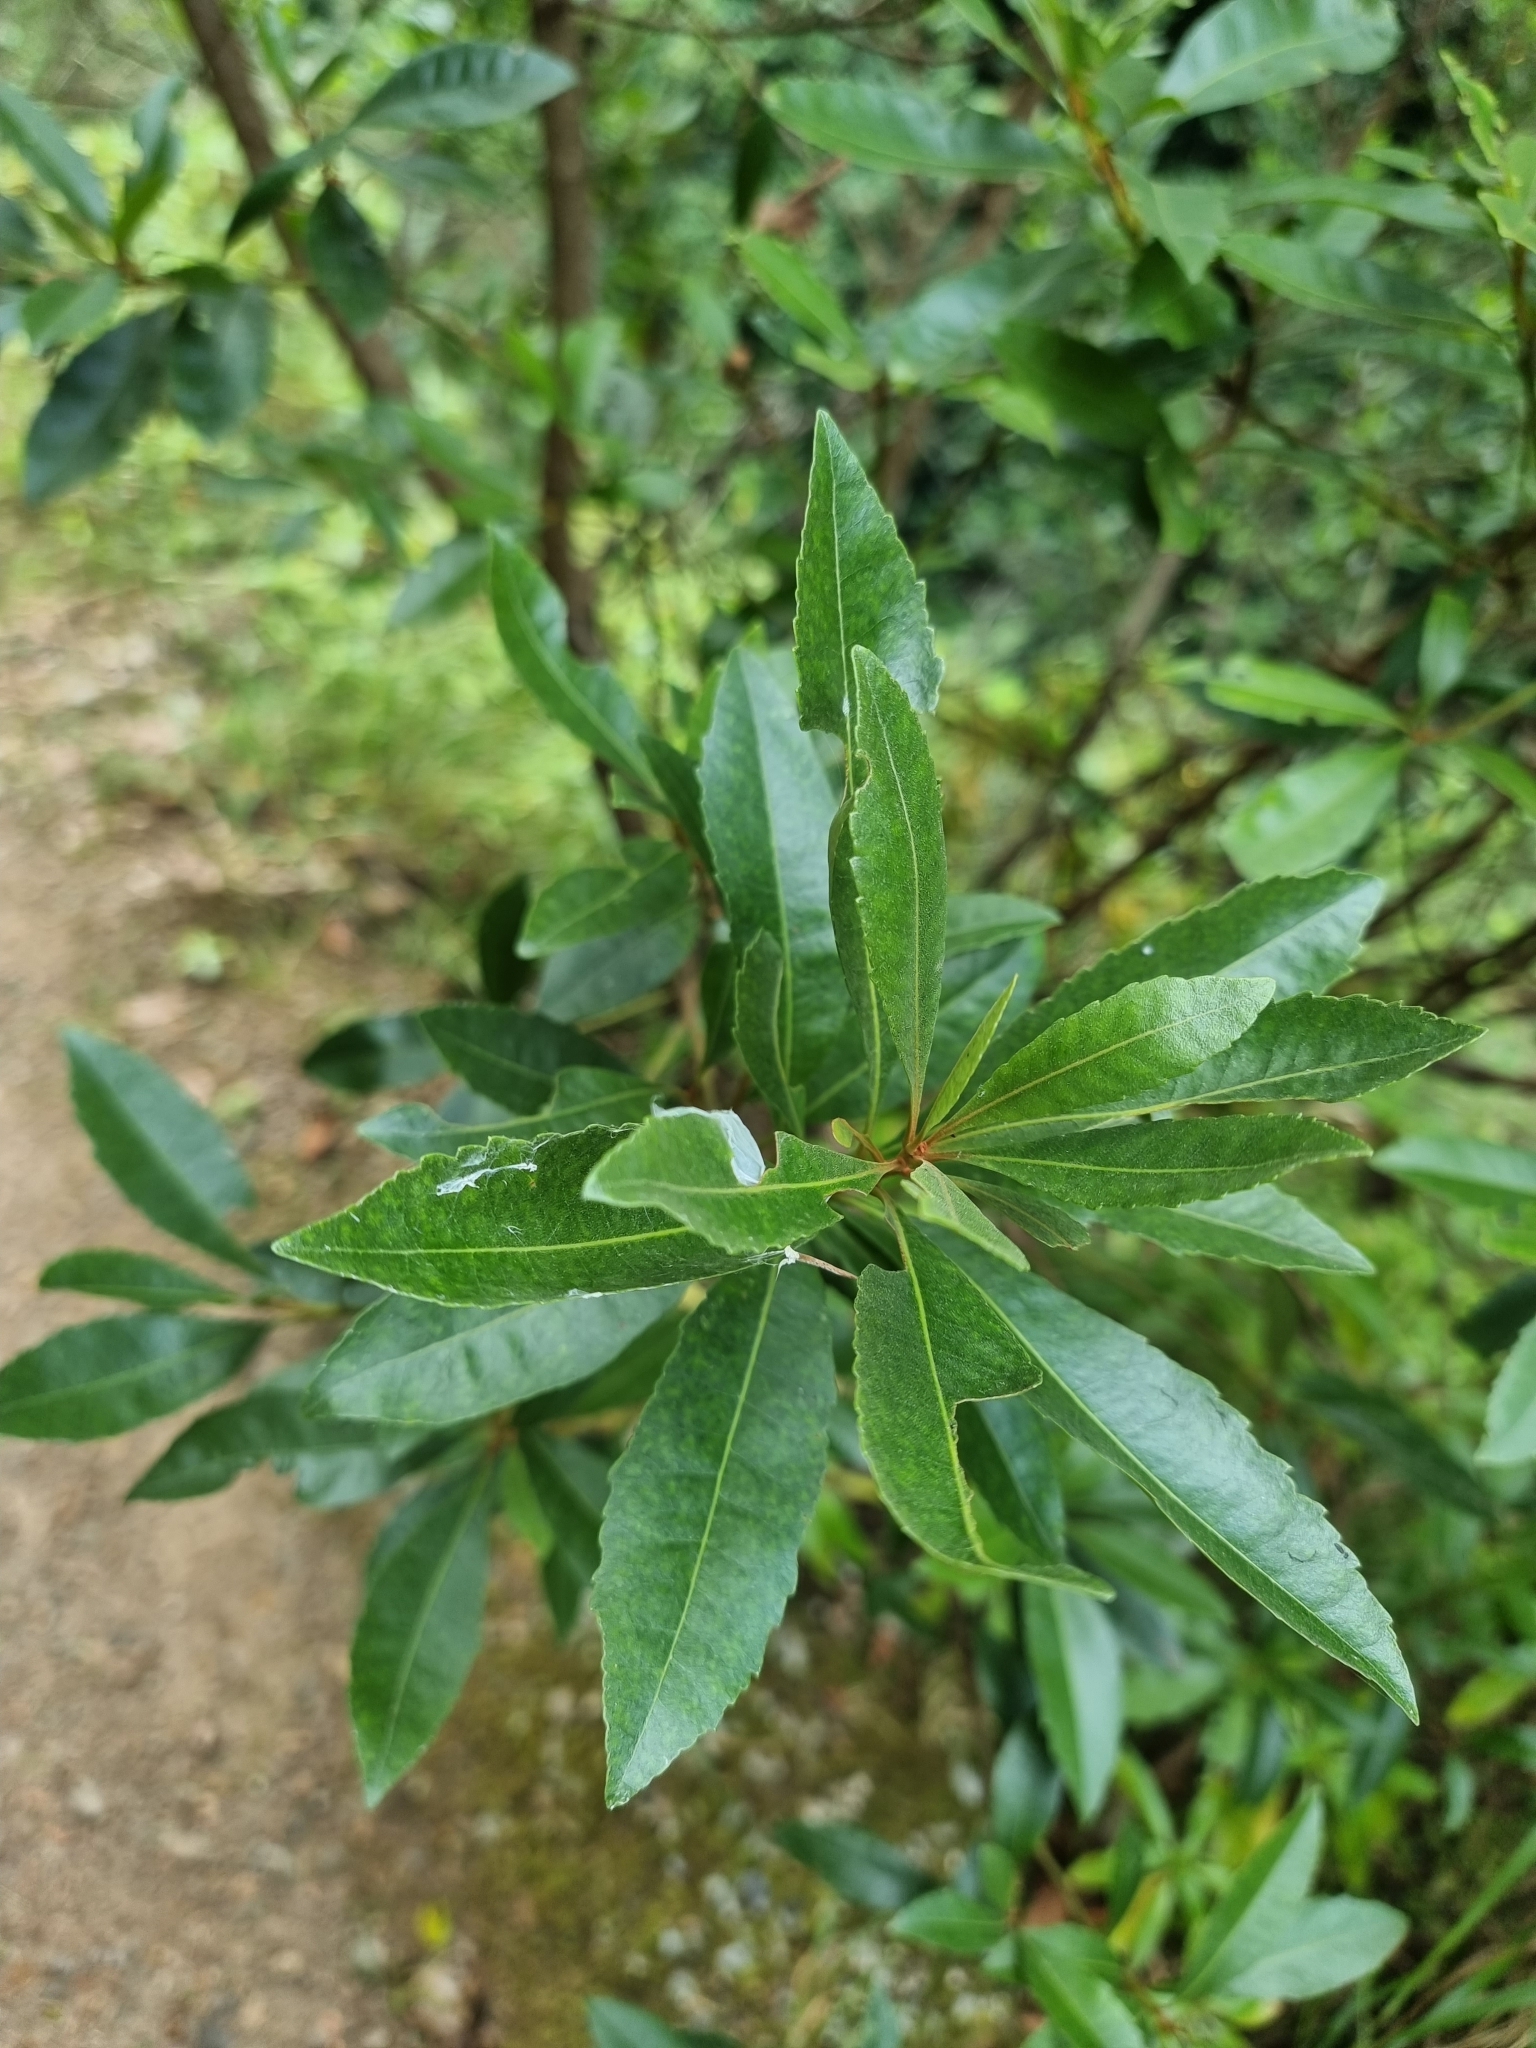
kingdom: Plantae
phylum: Tracheophyta
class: Magnoliopsida
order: Fagales
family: Myricaceae
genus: Morella
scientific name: Morella faya
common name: Firetree
